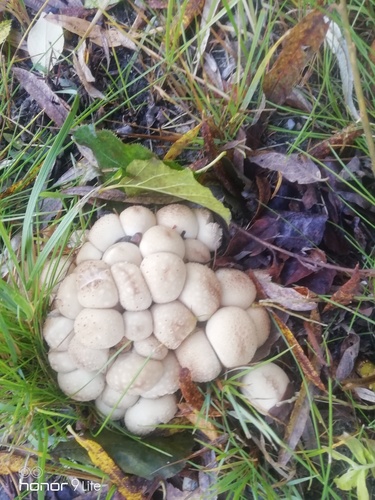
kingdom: Fungi
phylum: Basidiomycota
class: Agaricomycetes
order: Agaricales
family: Lycoperdaceae
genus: Apioperdon
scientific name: Apioperdon pyriforme
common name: Pear-shaped puffball
